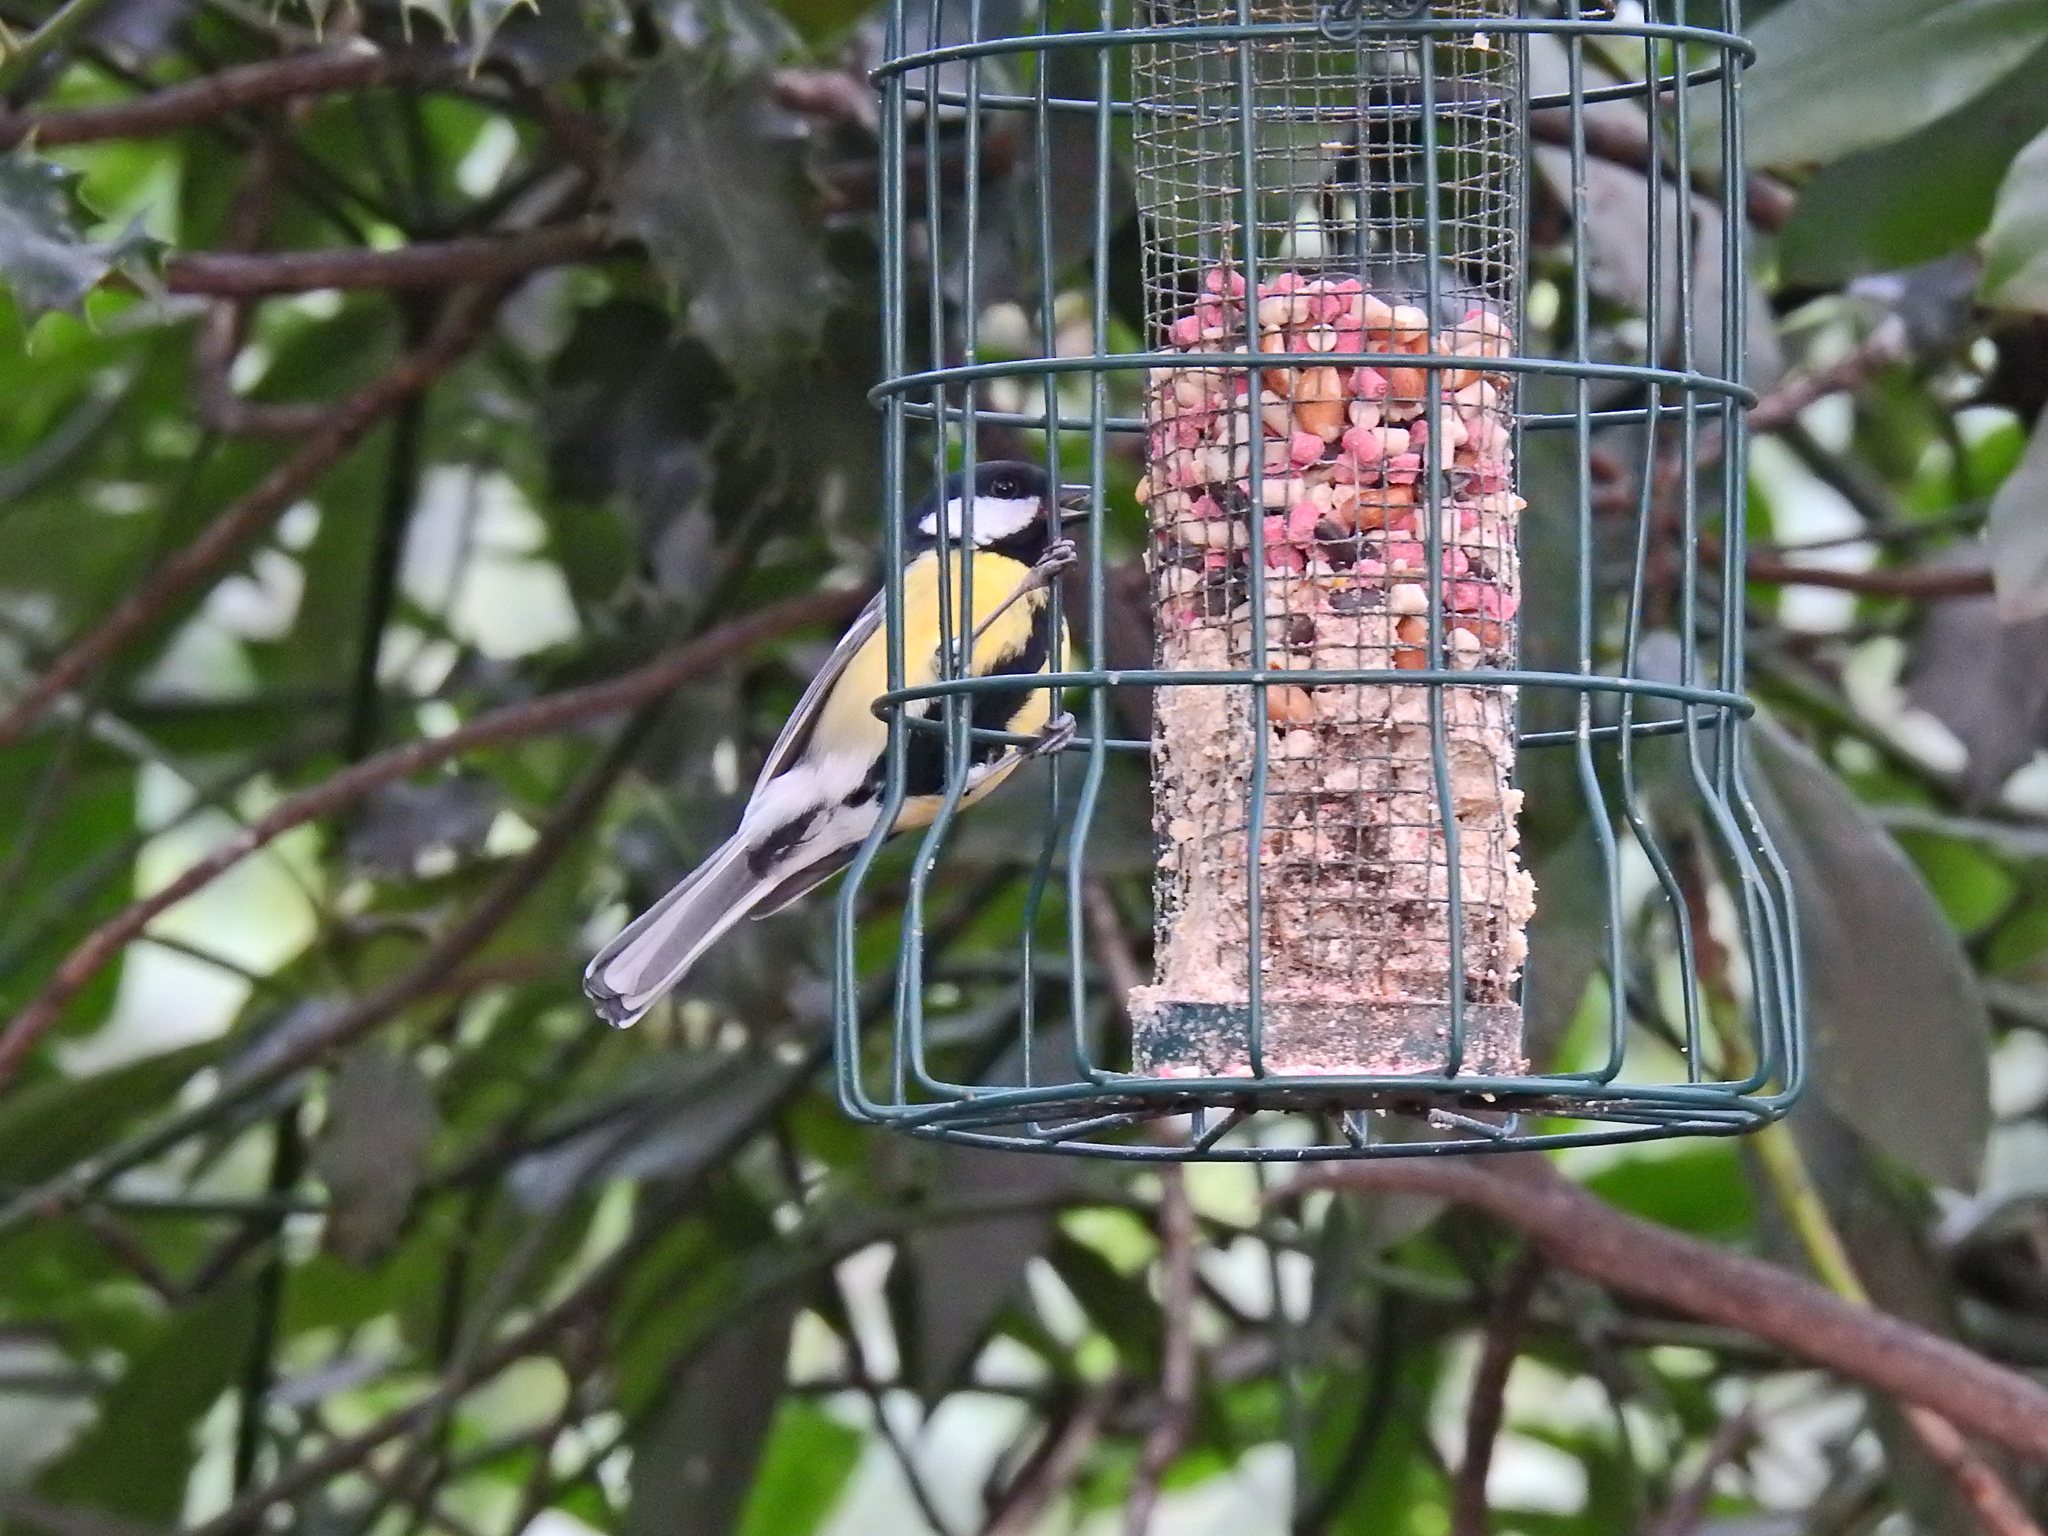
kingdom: Animalia
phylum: Chordata
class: Aves
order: Passeriformes
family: Paridae
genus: Parus
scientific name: Parus major
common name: Great tit
